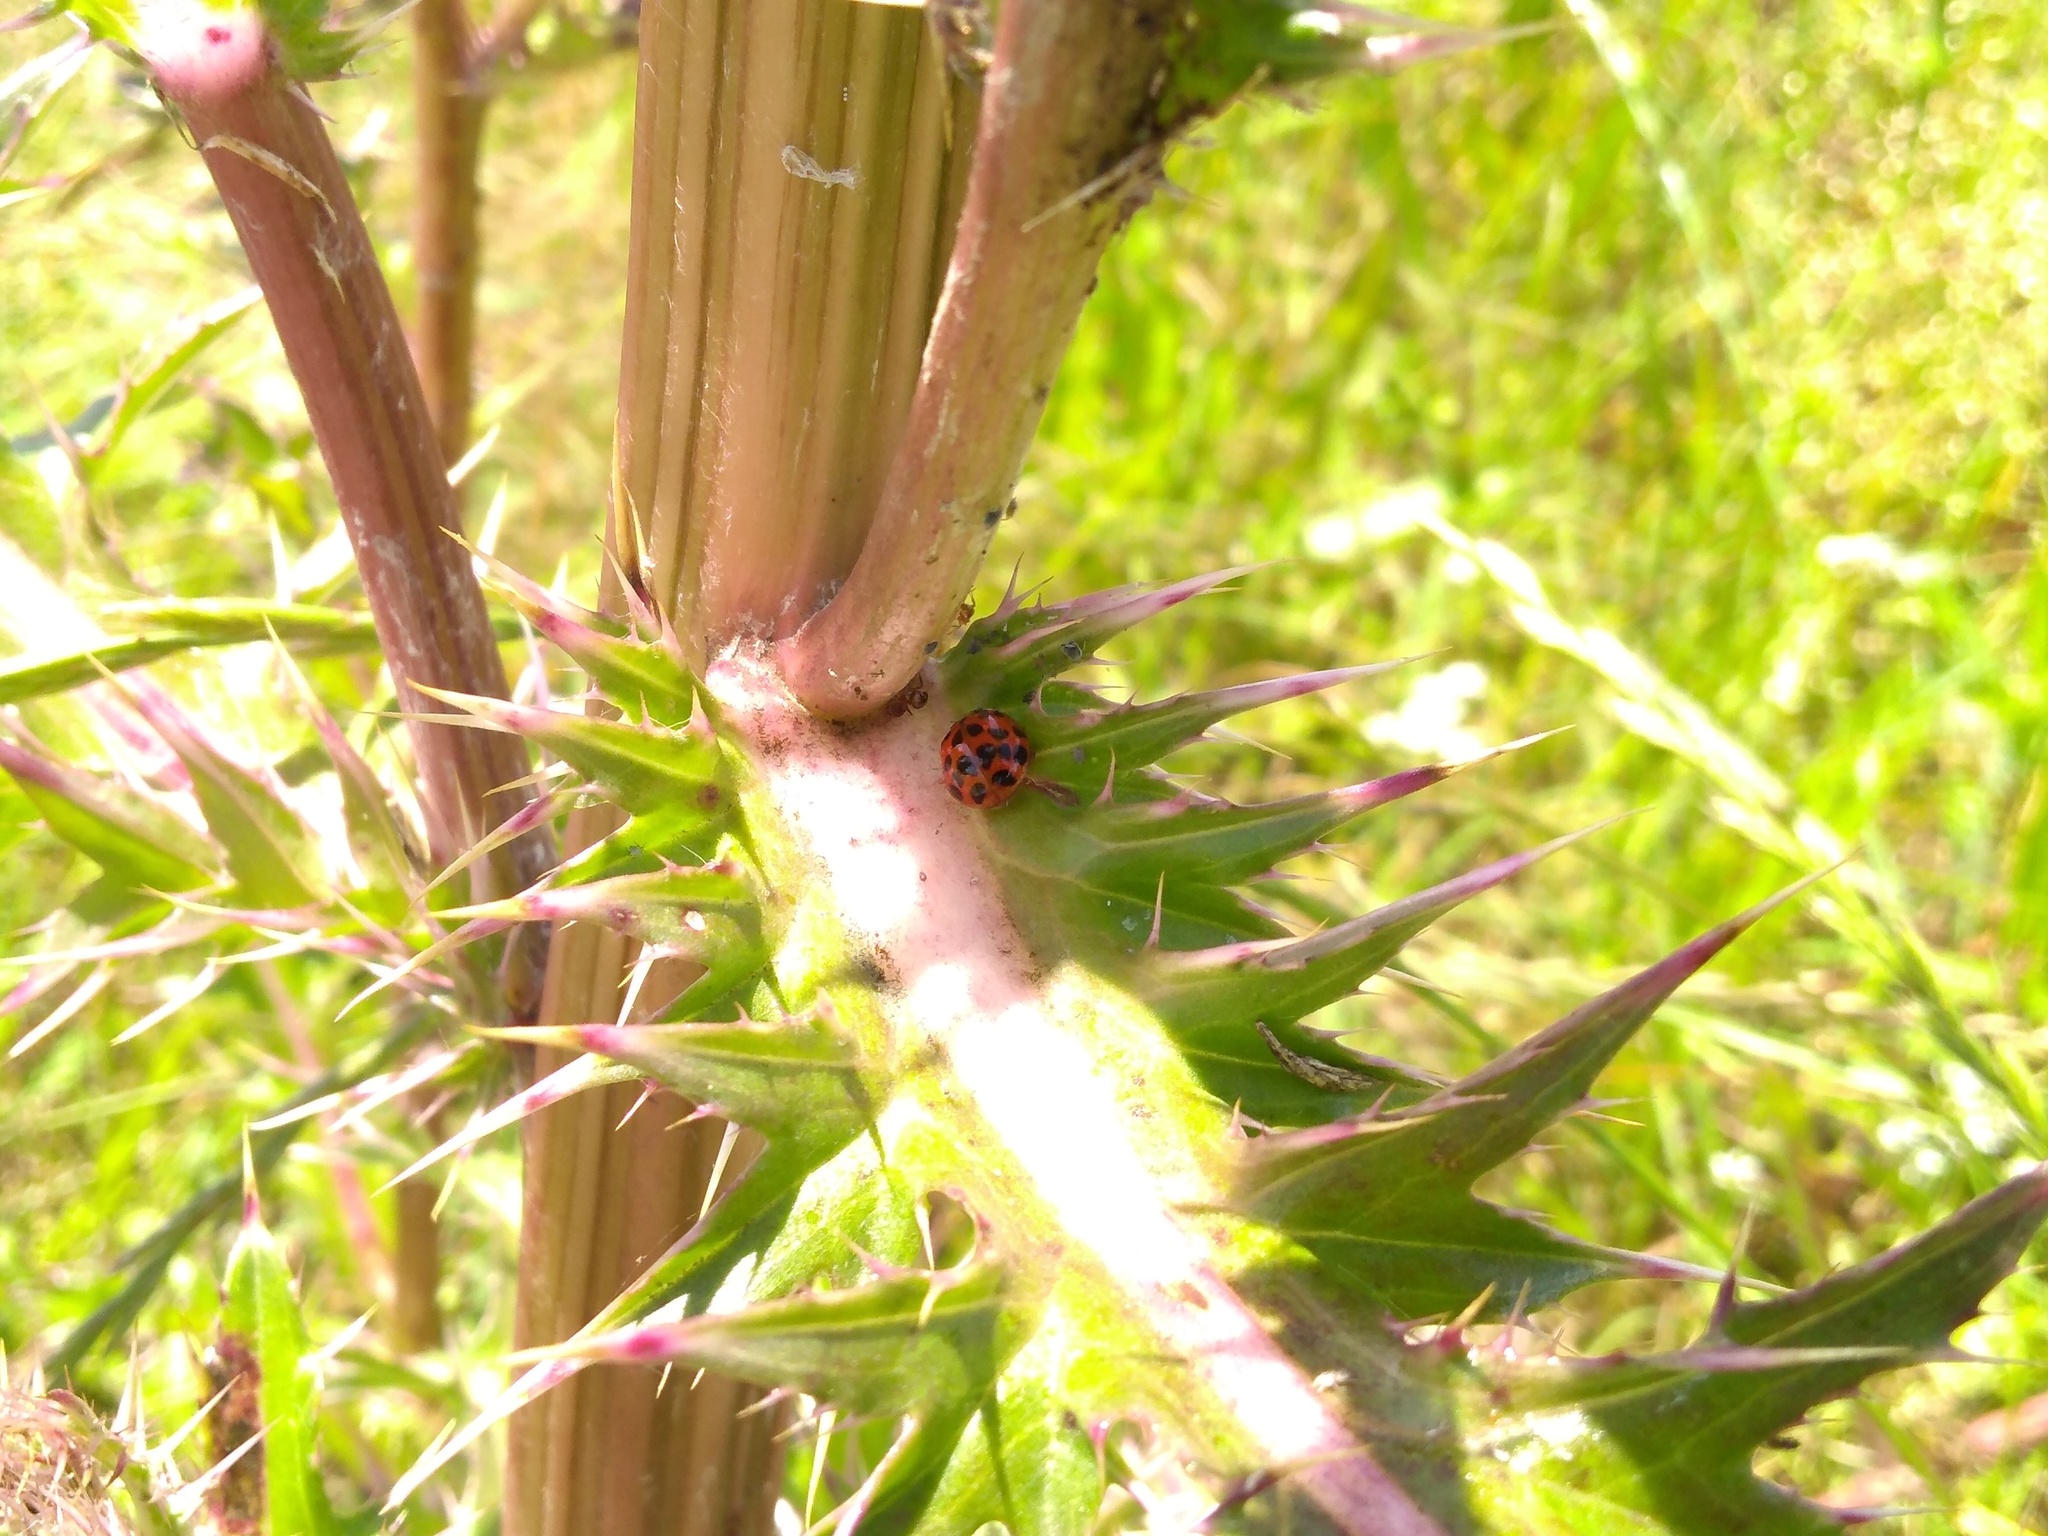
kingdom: Animalia
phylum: Arthropoda
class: Insecta
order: Coleoptera
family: Coccinellidae
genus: Harmonia
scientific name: Harmonia axyridis
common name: Harlequin ladybird
